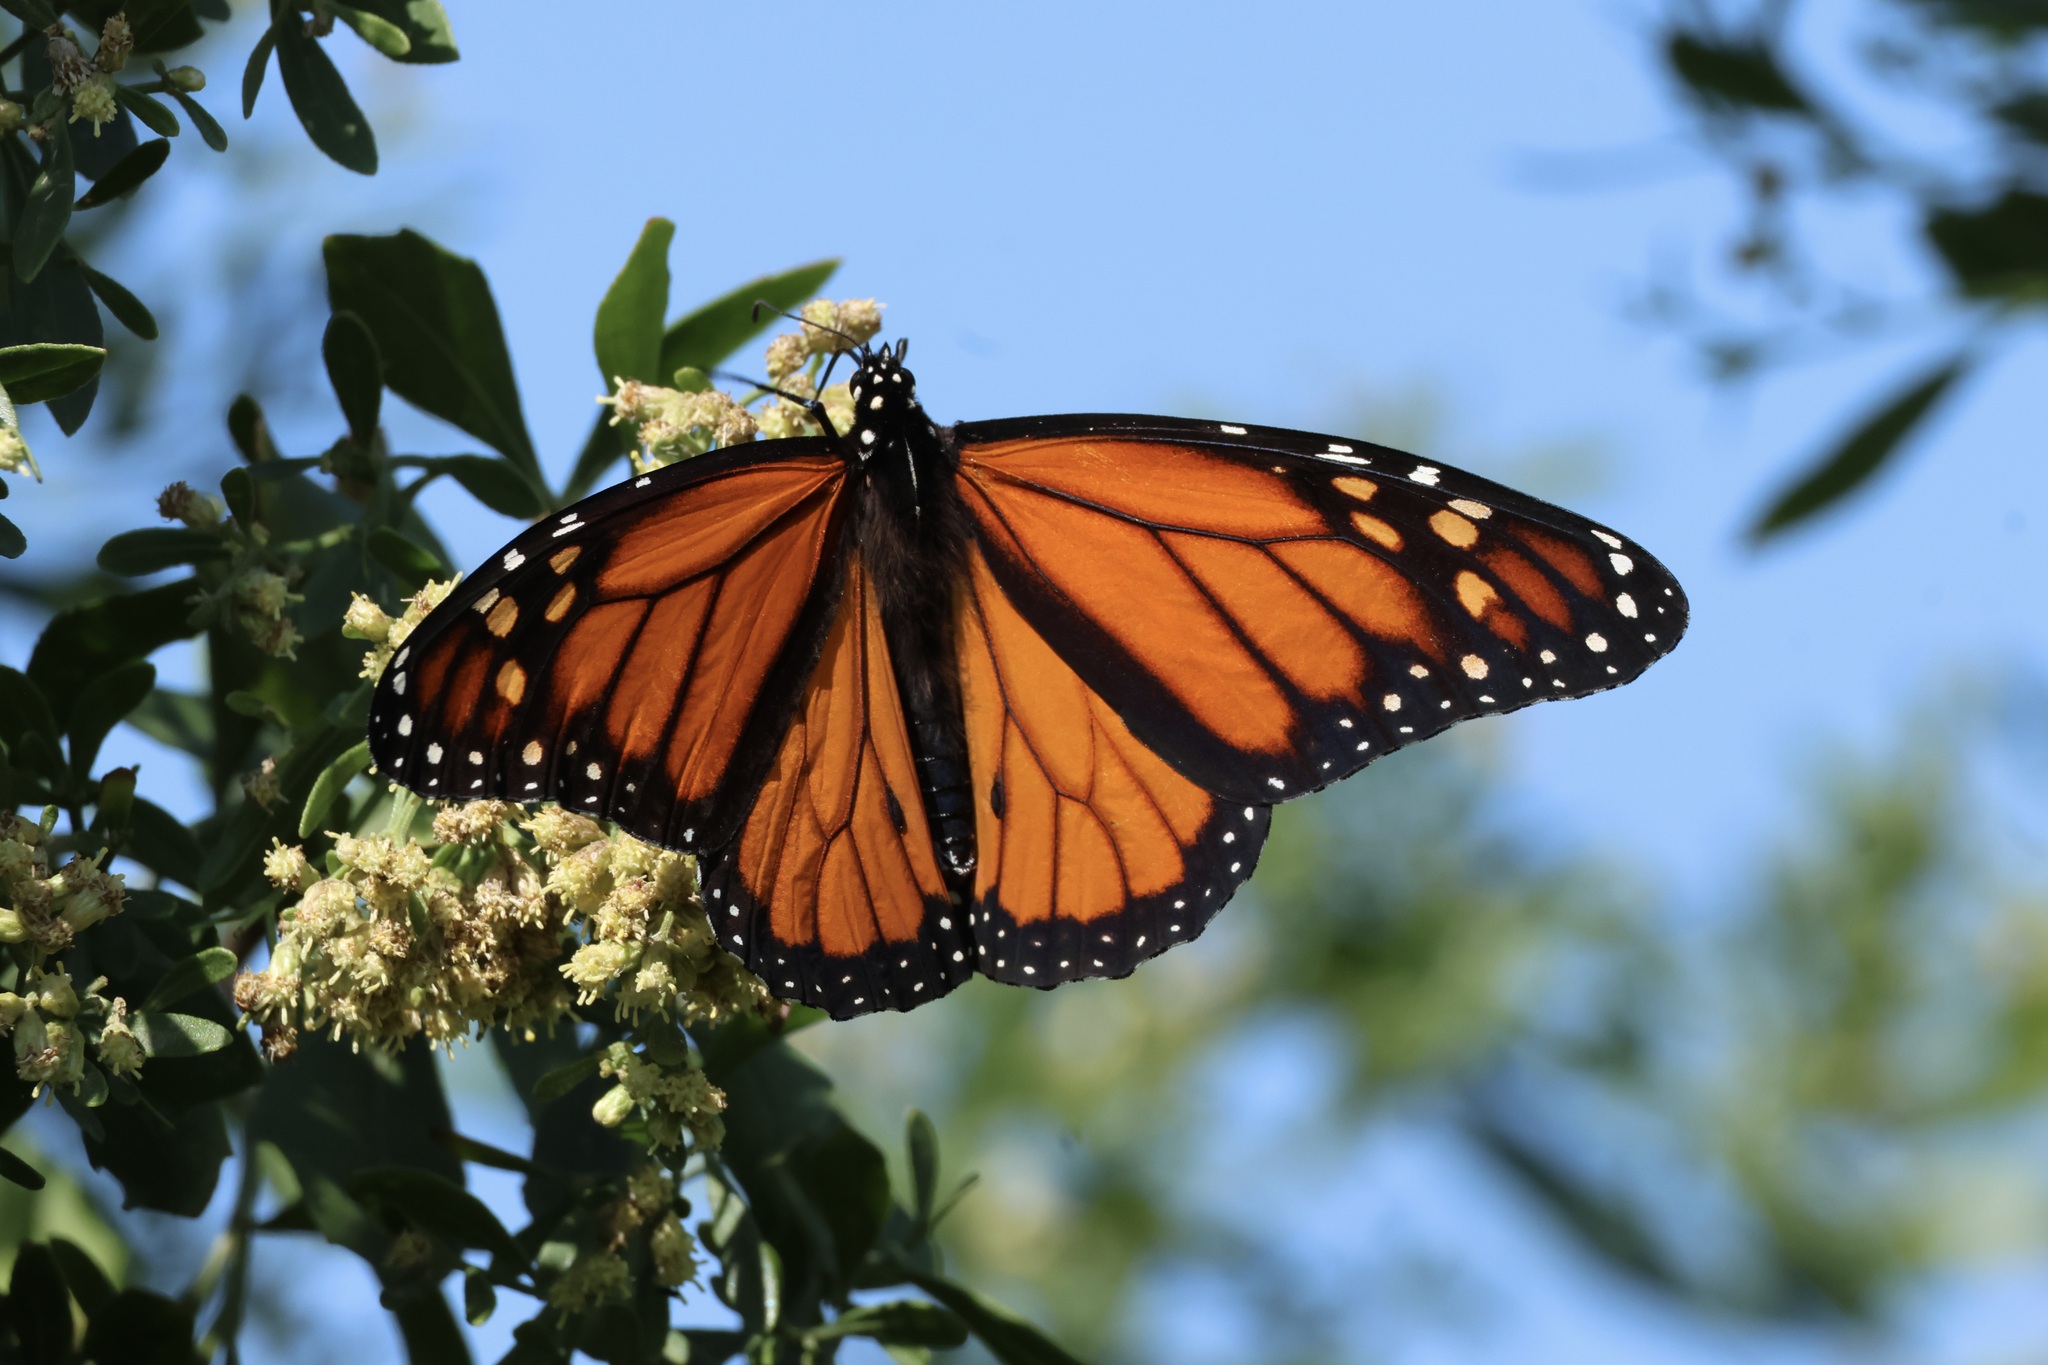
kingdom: Animalia
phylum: Arthropoda
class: Insecta
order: Lepidoptera
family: Nymphalidae
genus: Danaus
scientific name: Danaus plexippus
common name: Monarch
